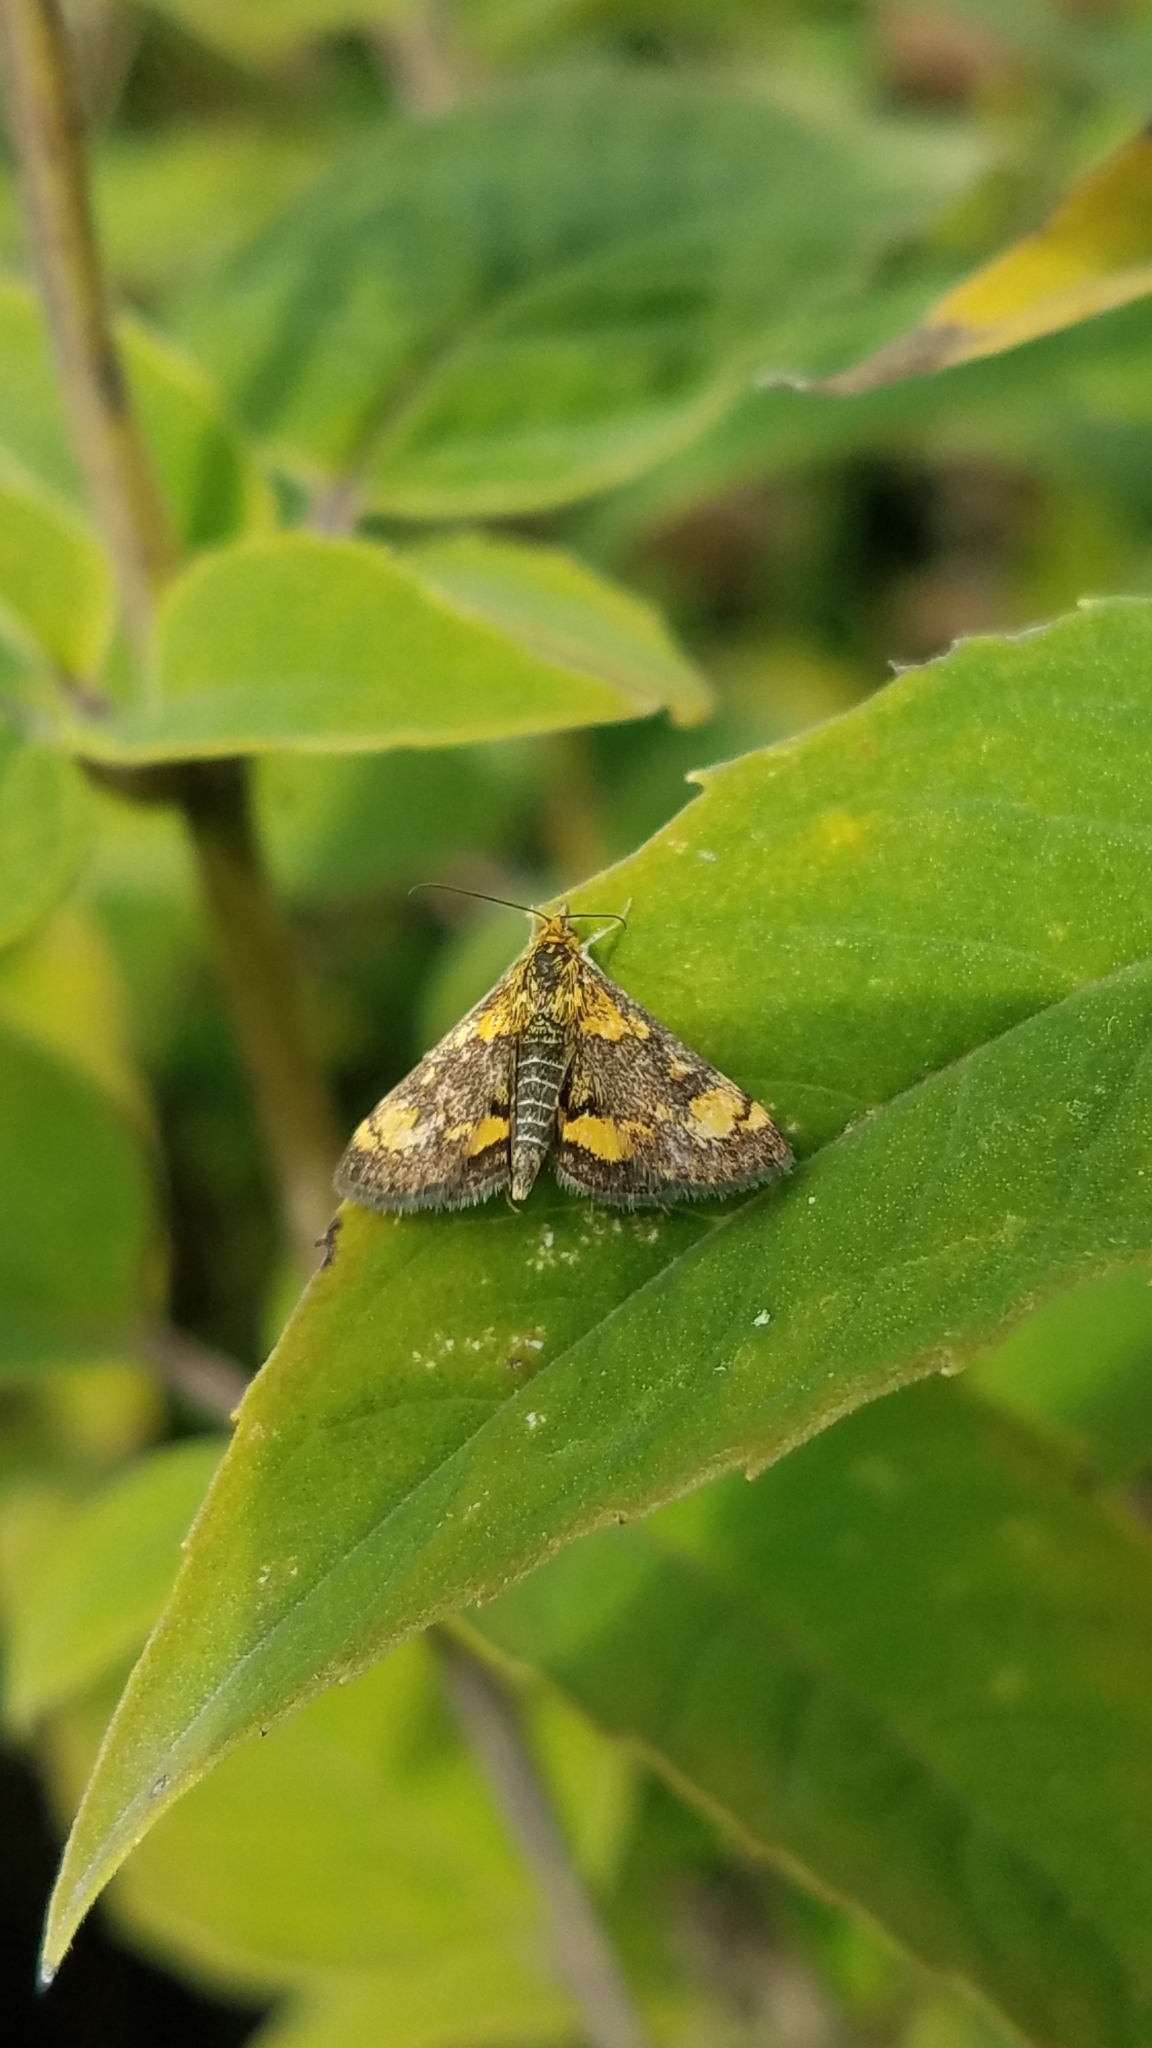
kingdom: Animalia
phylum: Arthropoda
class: Insecta
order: Lepidoptera
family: Crambidae
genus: Pyrausta
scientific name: Pyrausta orphisalis
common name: Orange mint moth
